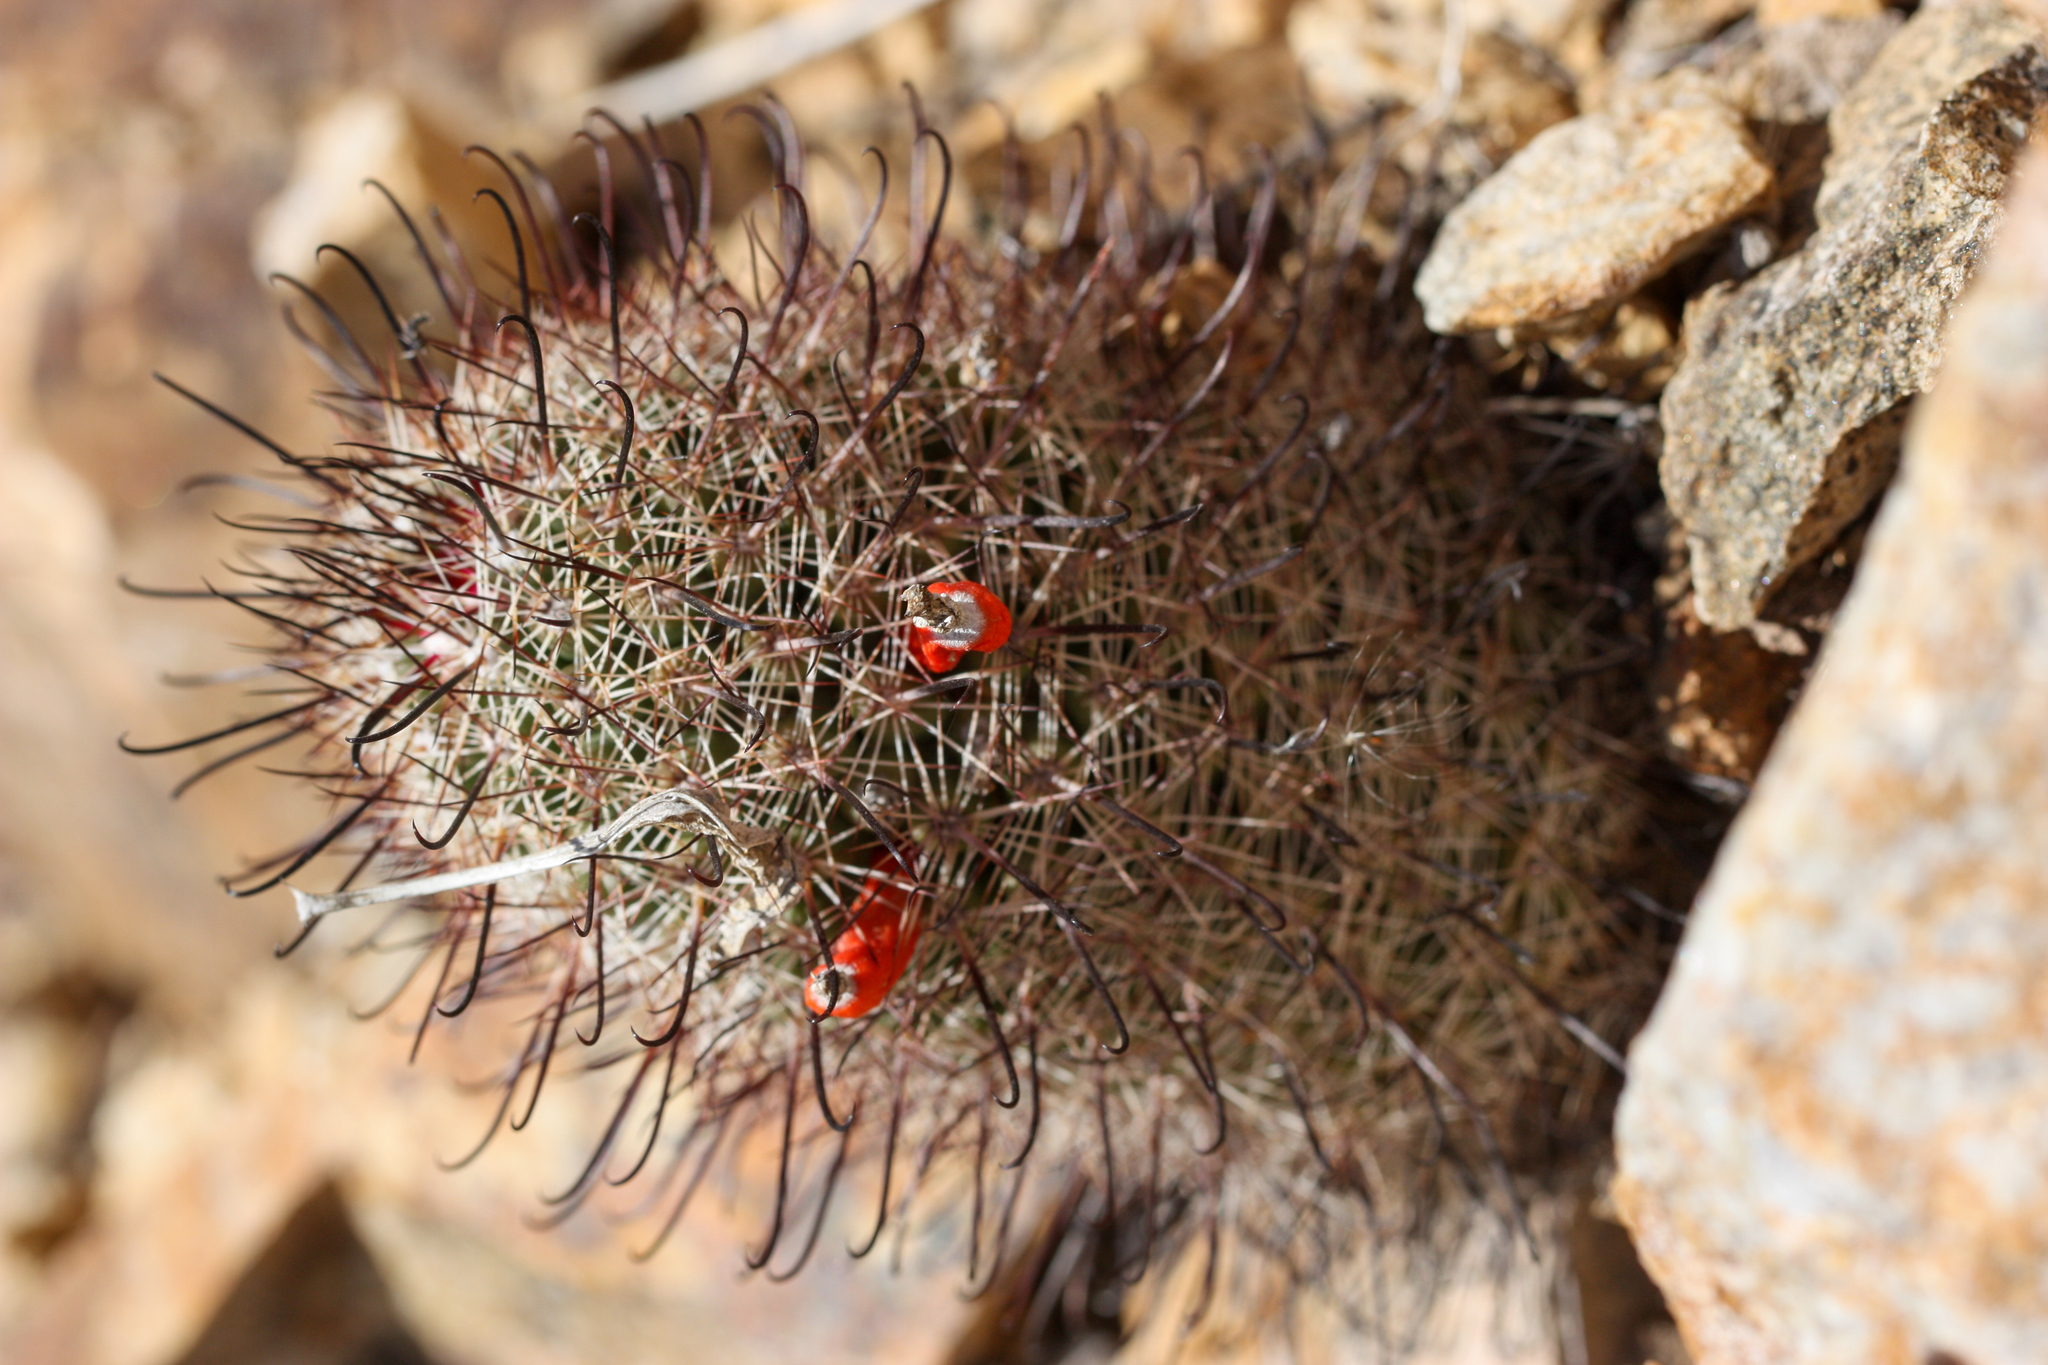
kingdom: Plantae
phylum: Tracheophyta
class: Magnoliopsida
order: Caryophyllales
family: Cactaceae
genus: Cochemiea
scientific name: Cochemiea grahamii
